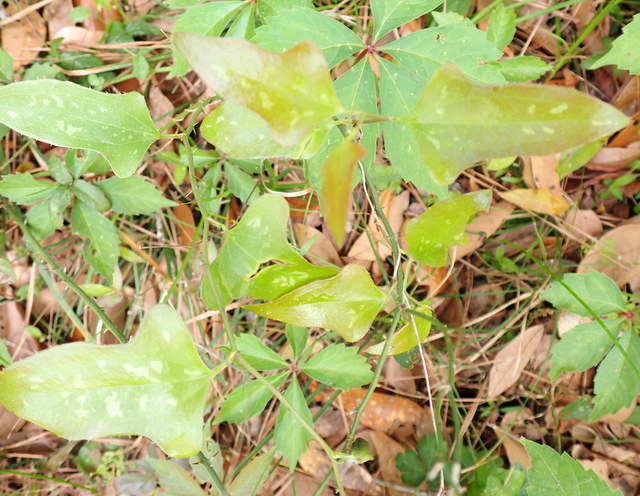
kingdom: Plantae
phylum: Tracheophyta
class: Liliopsida
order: Liliales
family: Smilacaceae
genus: Smilax
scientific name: Smilax bona-nox
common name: Catbrier
